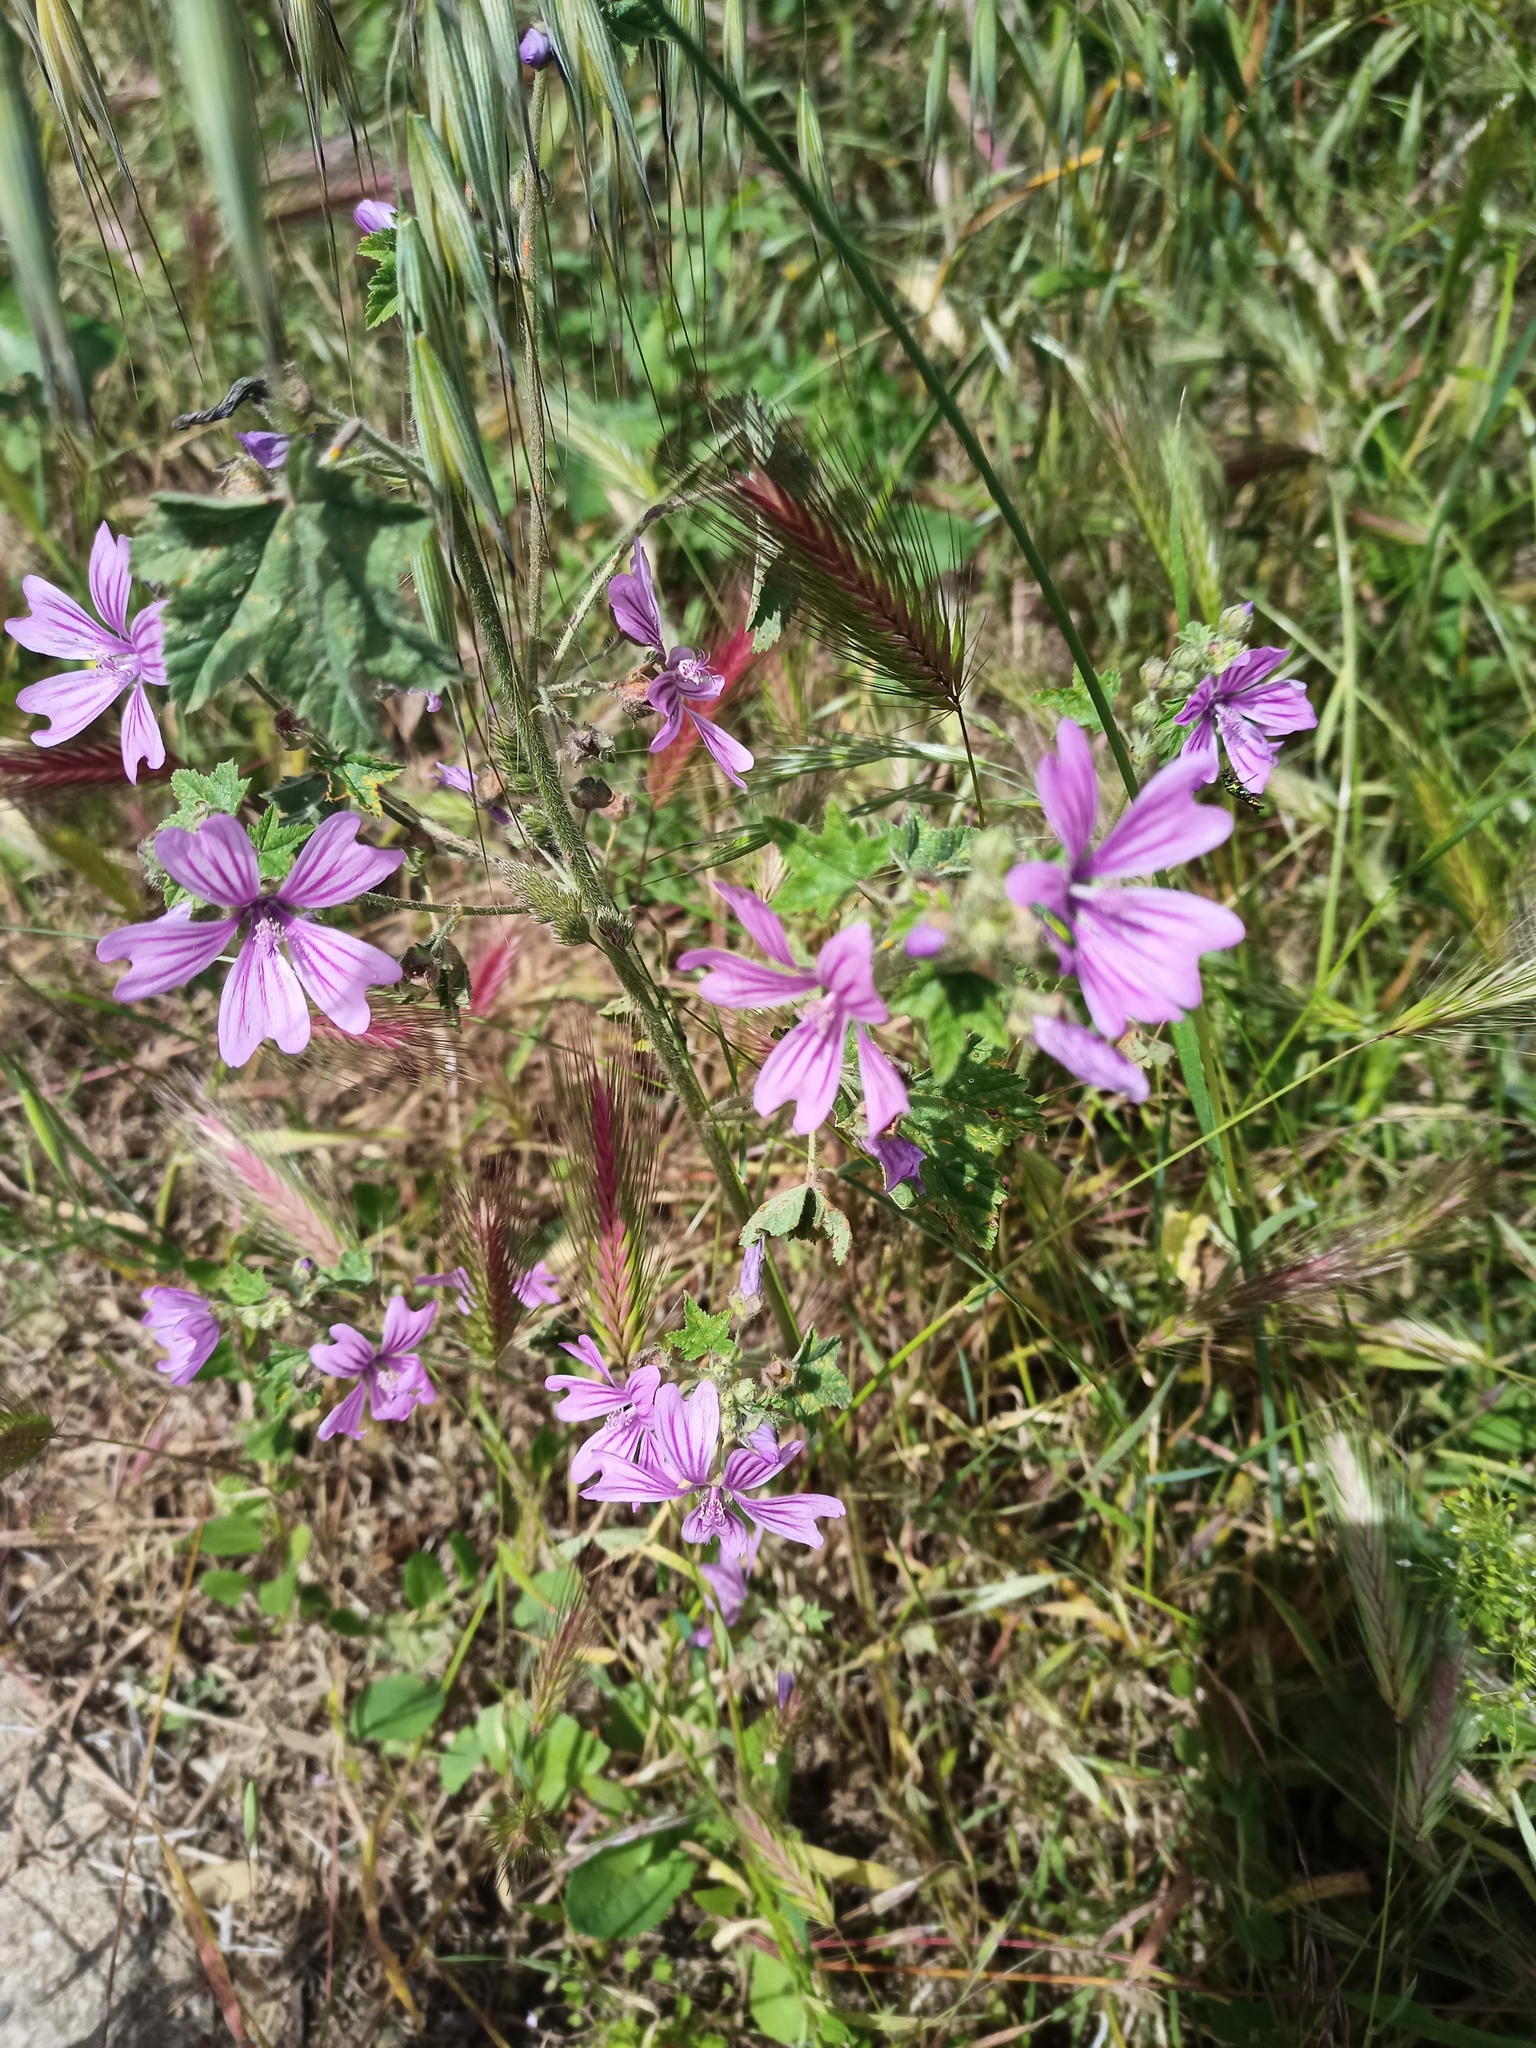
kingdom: Plantae
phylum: Tracheophyta
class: Magnoliopsida
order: Malvales
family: Malvaceae
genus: Malva
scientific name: Malva sylvestris
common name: Common mallow
